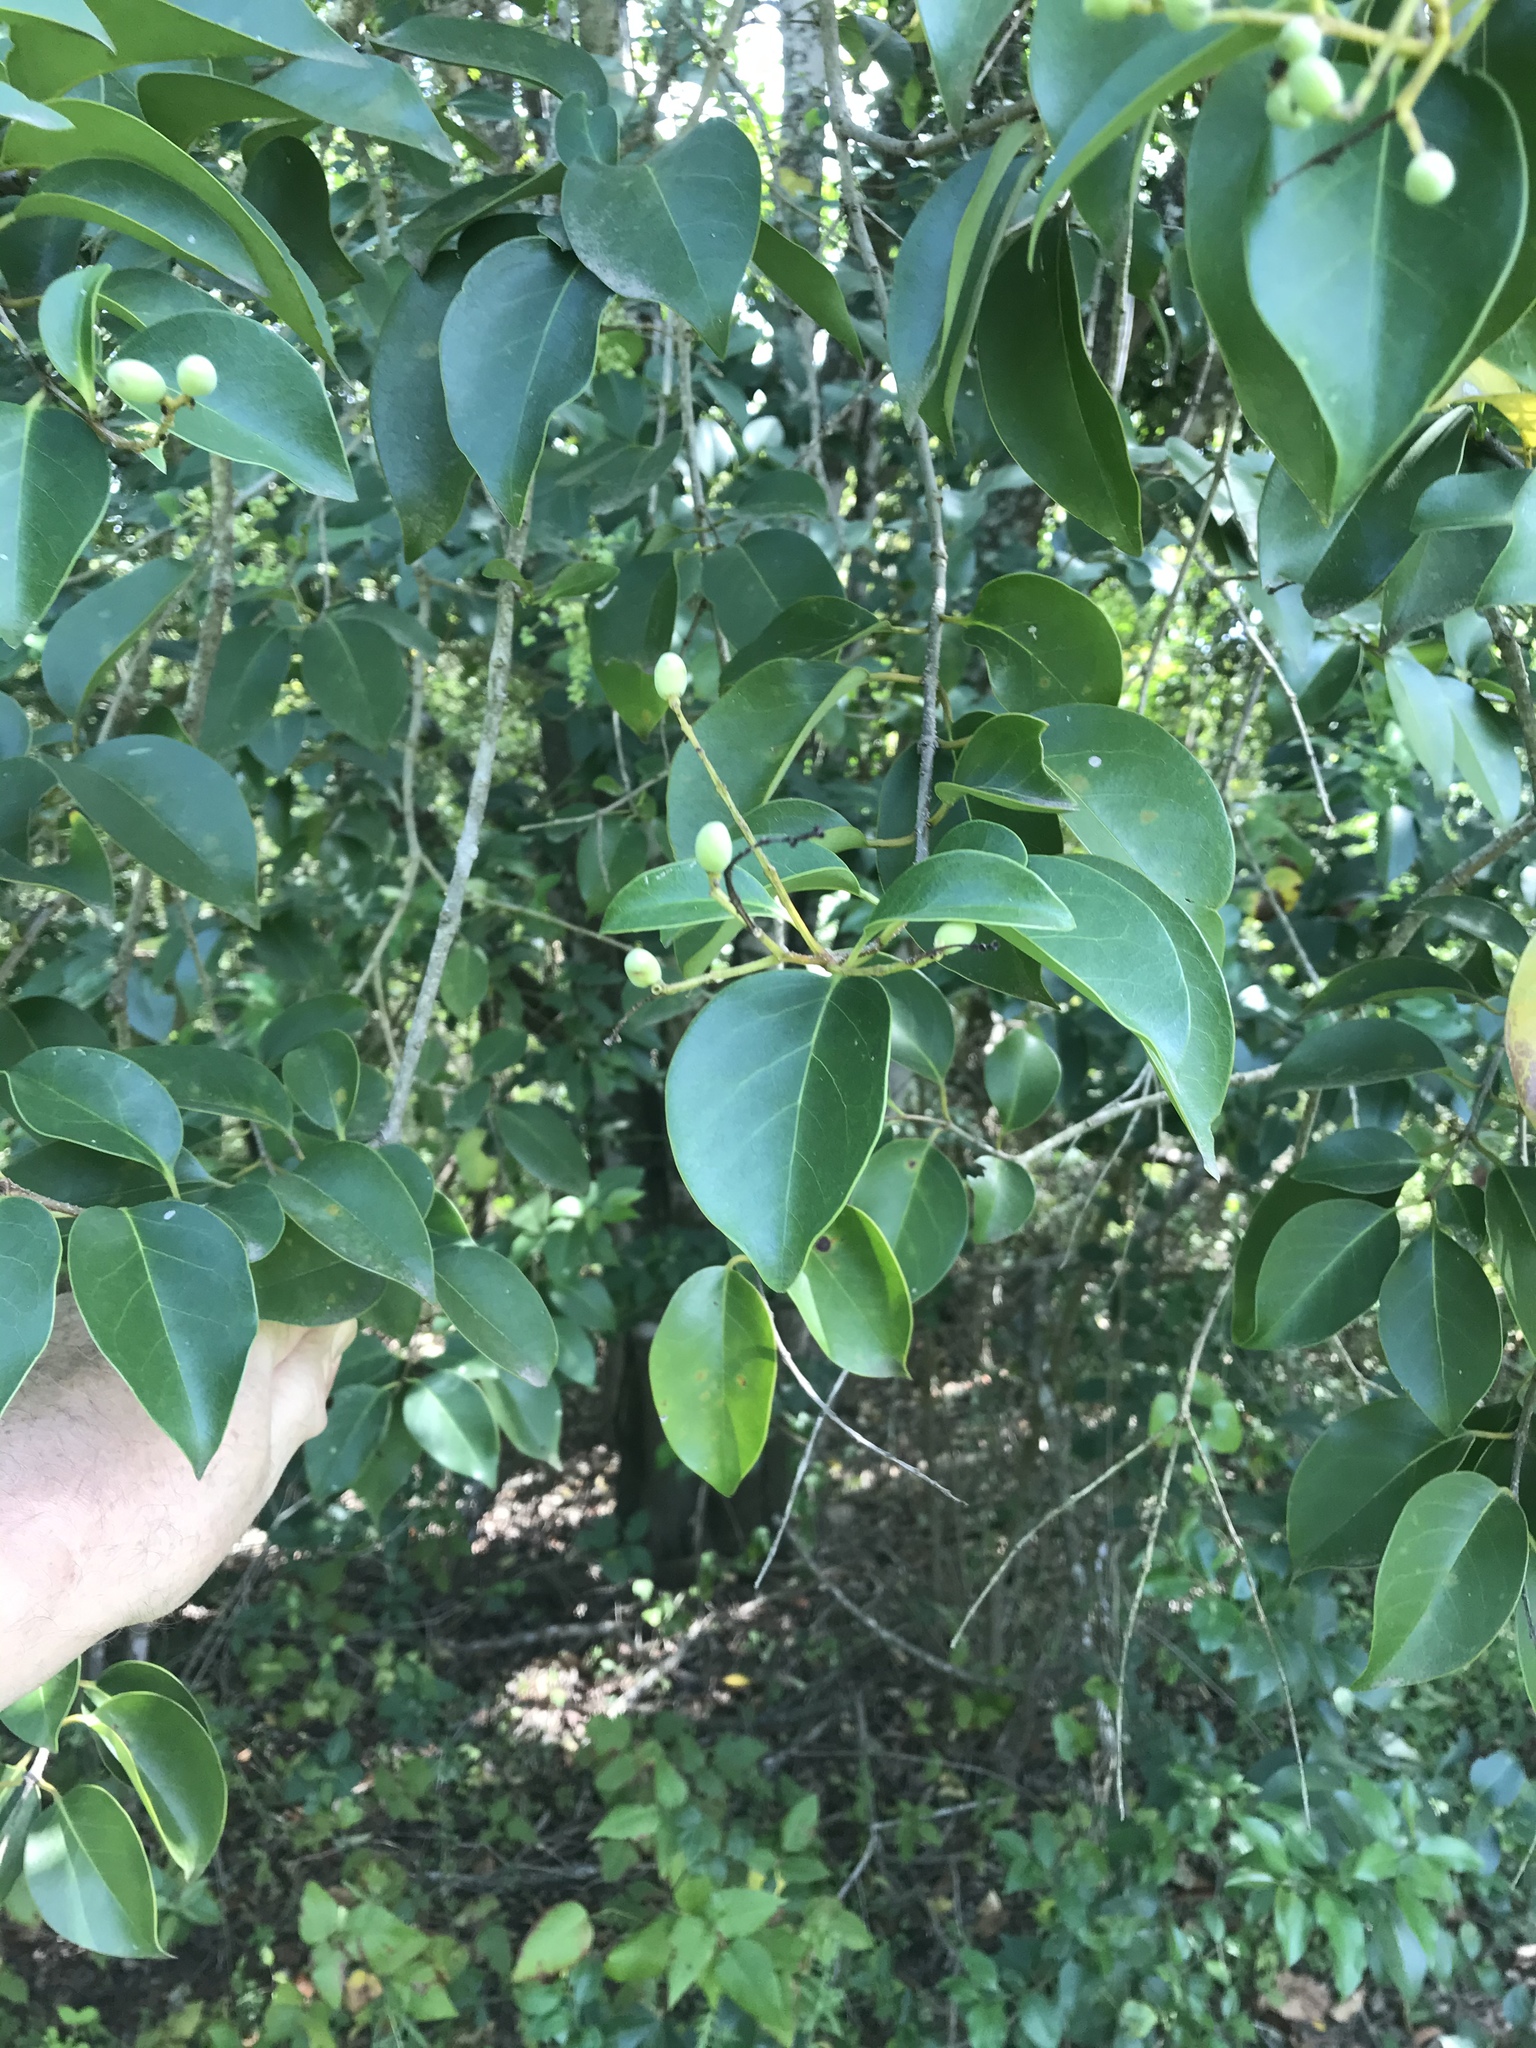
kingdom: Plantae
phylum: Tracheophyta
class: Magnoliopsida
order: Lamiales
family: Oleaceae
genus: Ligustrum
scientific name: Ligustrum lucidum
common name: Glossy privet
